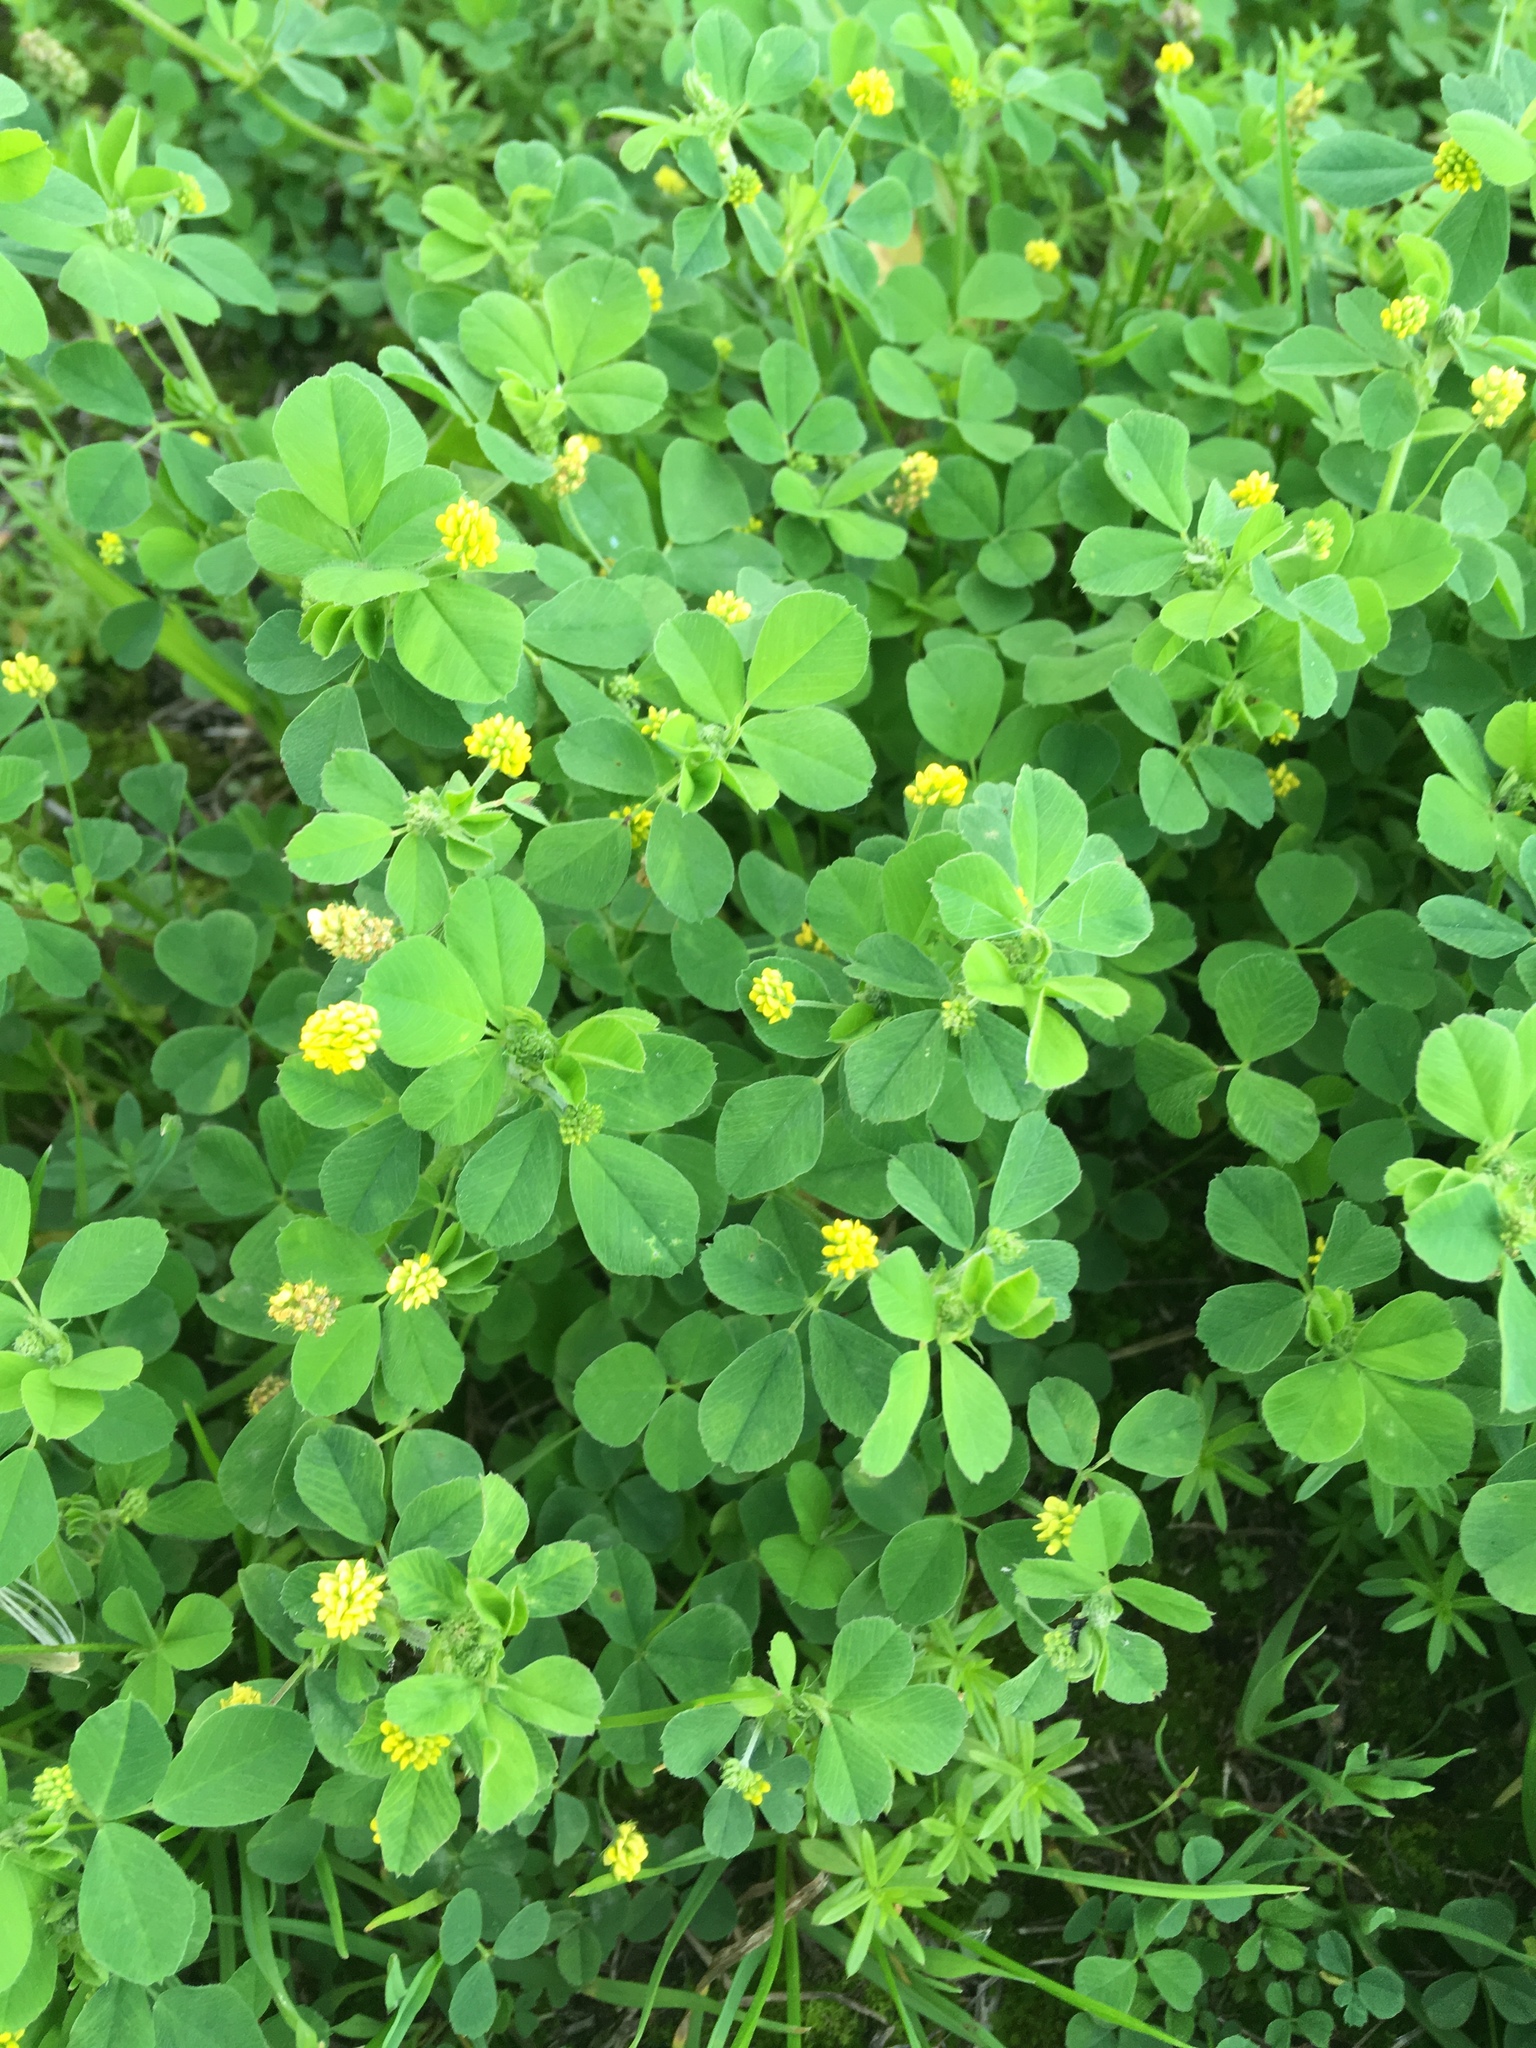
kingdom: Plantae
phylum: Tracheophyta
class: Magnoliopsida
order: Fabales
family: Fabaceae
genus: Medicago
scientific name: Medicago lupulina
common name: Black medick
